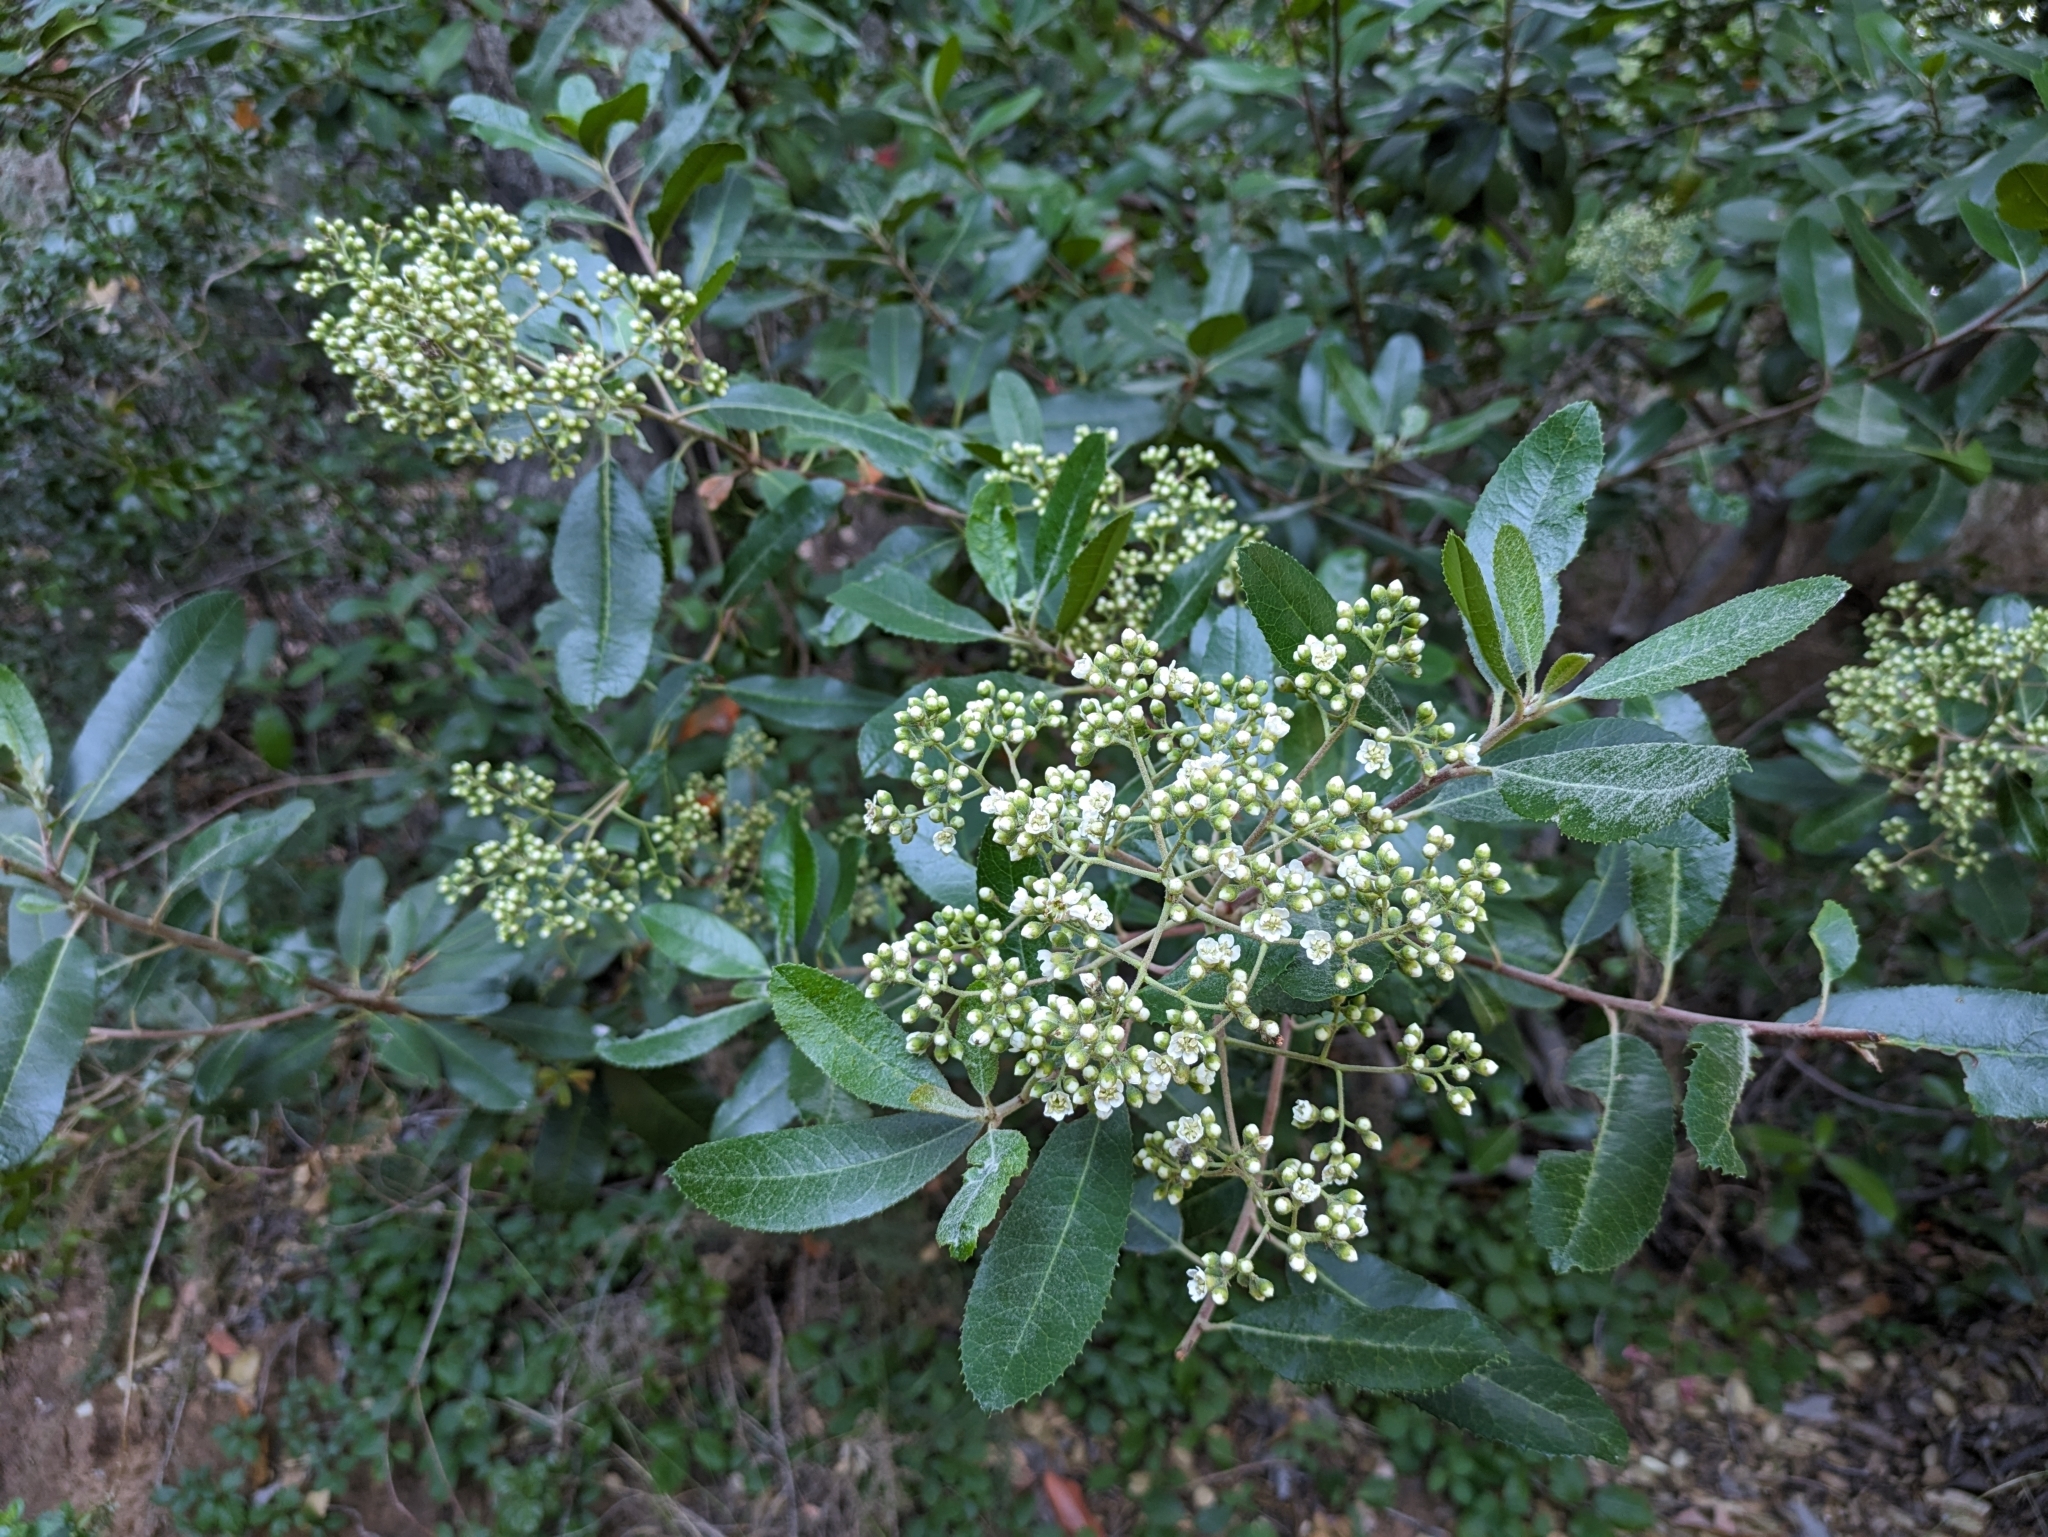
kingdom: Plantae
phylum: Tracheophyta
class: Magnoliopsida
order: Rosales
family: Rosaceae
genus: Heteromeles
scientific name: Heteromeles arbutifolia
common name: California-holly
